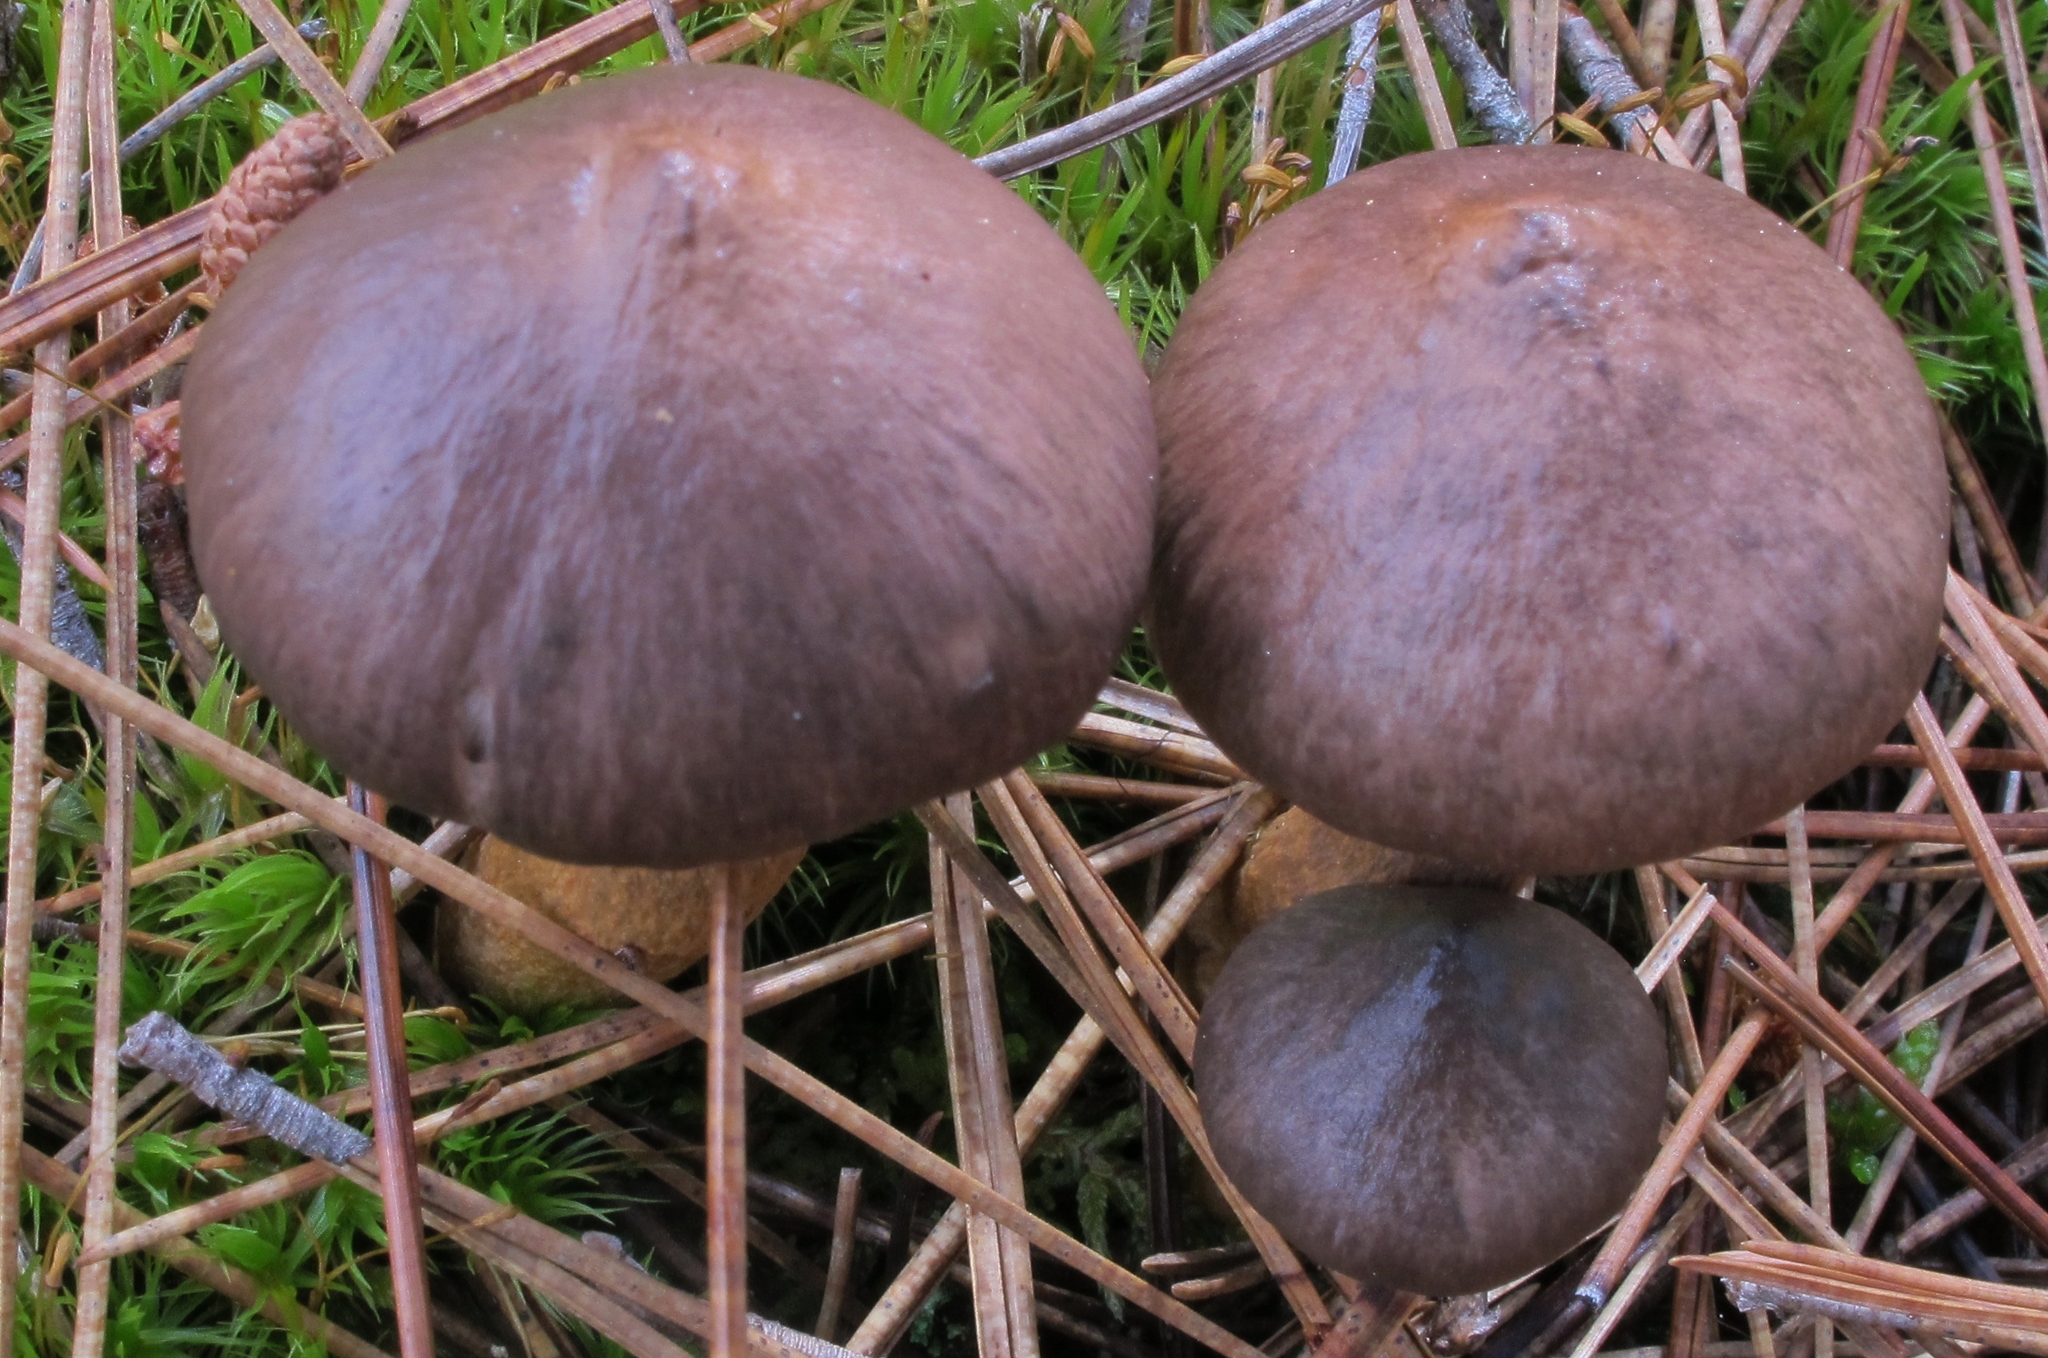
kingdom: Fungi
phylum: Basidiomycota
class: Agaricomycetes
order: Boletales
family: Gomphidiaceae
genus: Chroogomphus
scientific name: Chroogomphus vinicolor
